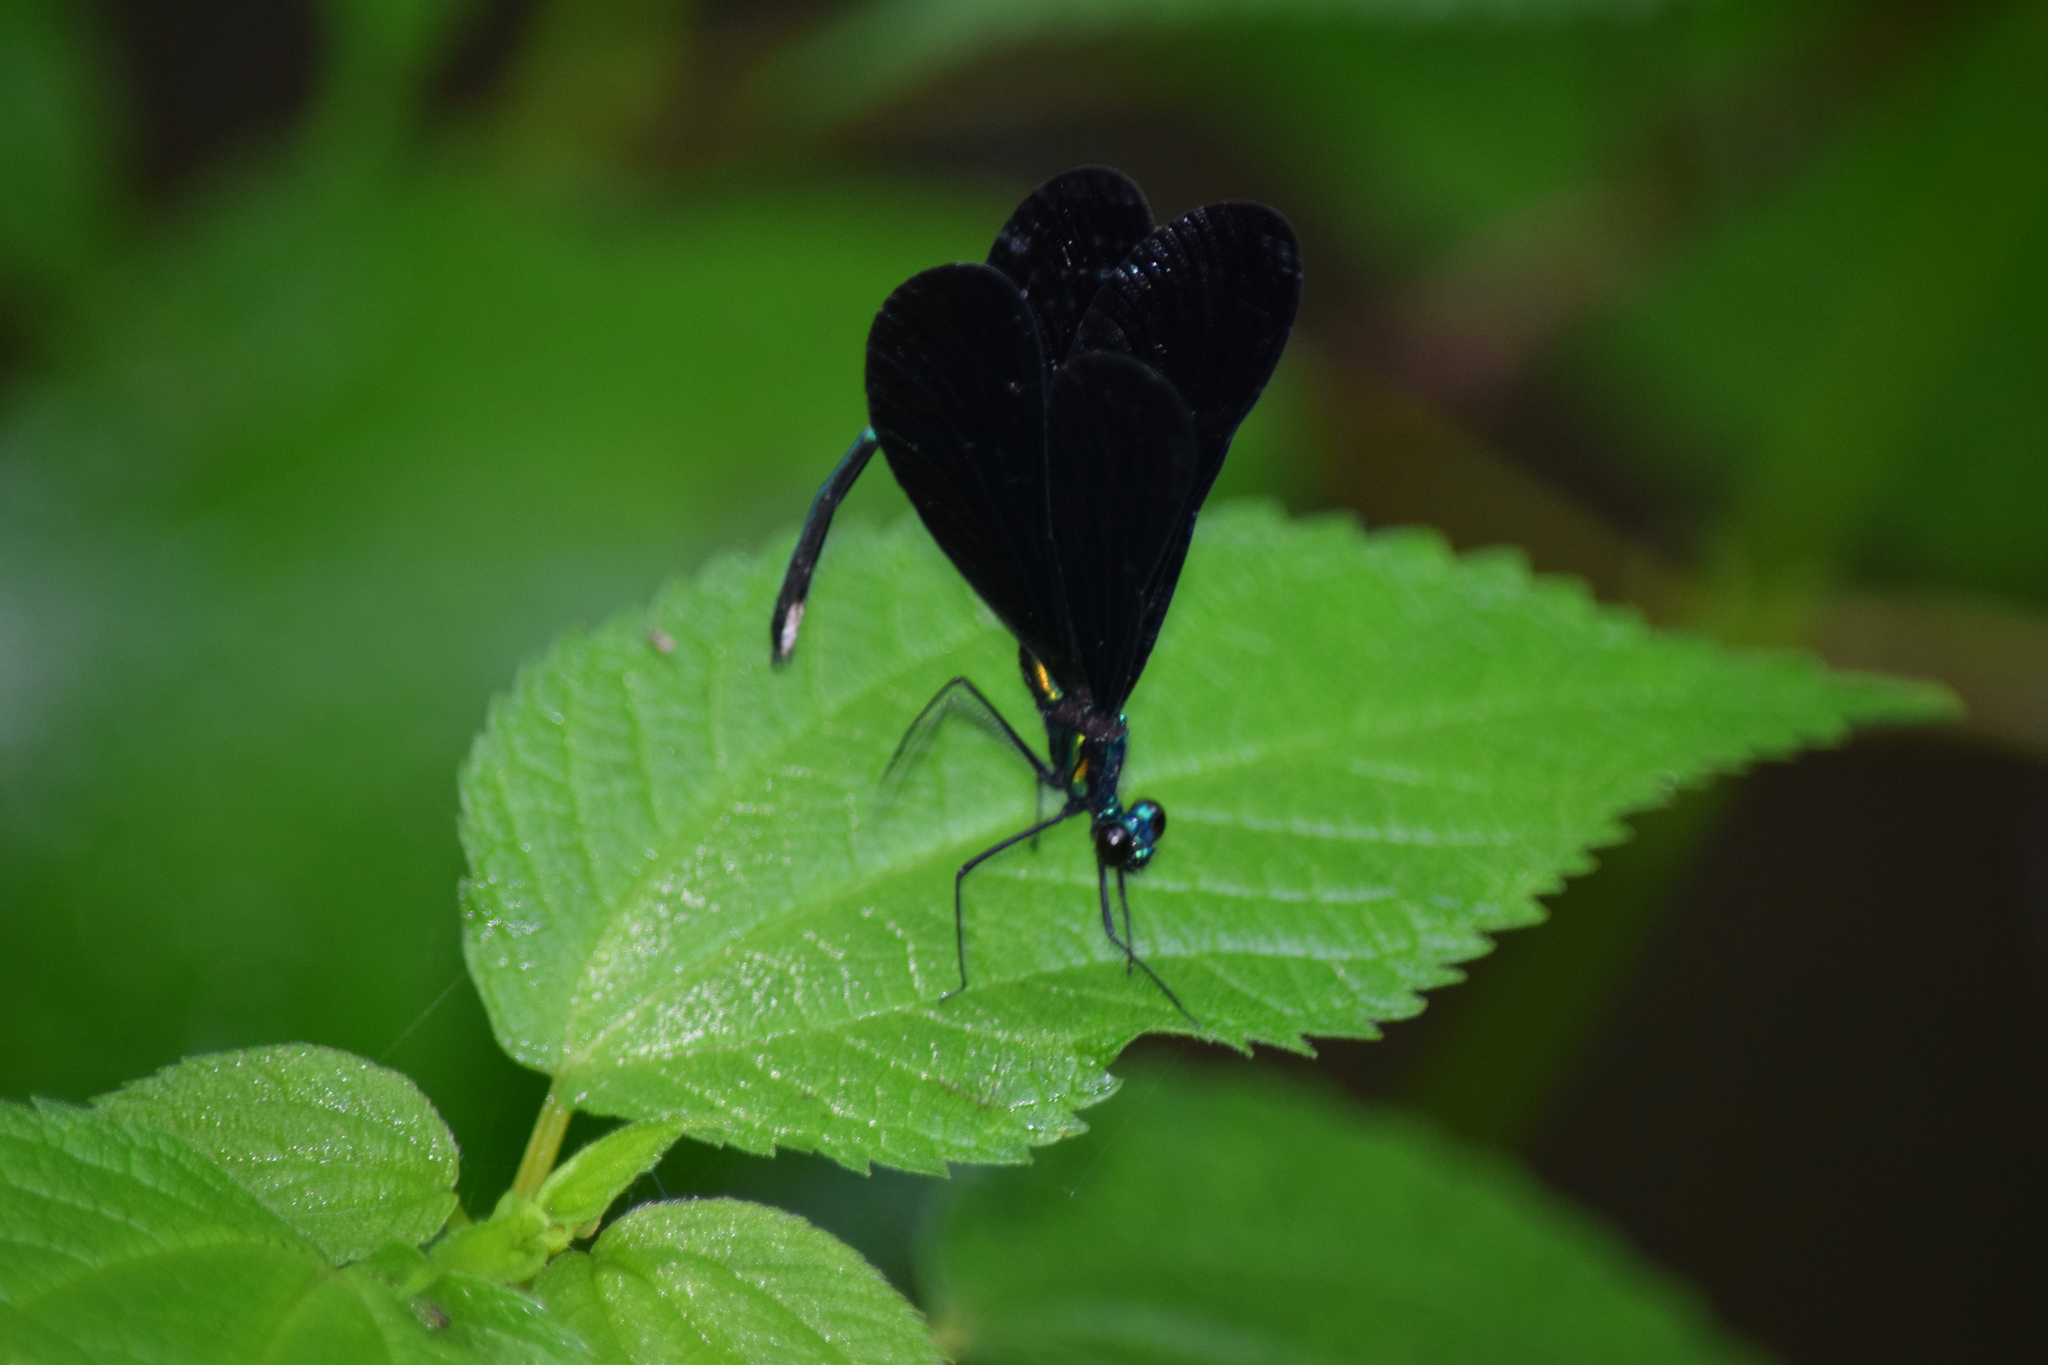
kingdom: Animalia
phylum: Arthropoda
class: Insecta
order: Odonata
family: Calopterygidae
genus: Calopteryx
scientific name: Calopteryx maculata
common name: Ebony jewelwing
